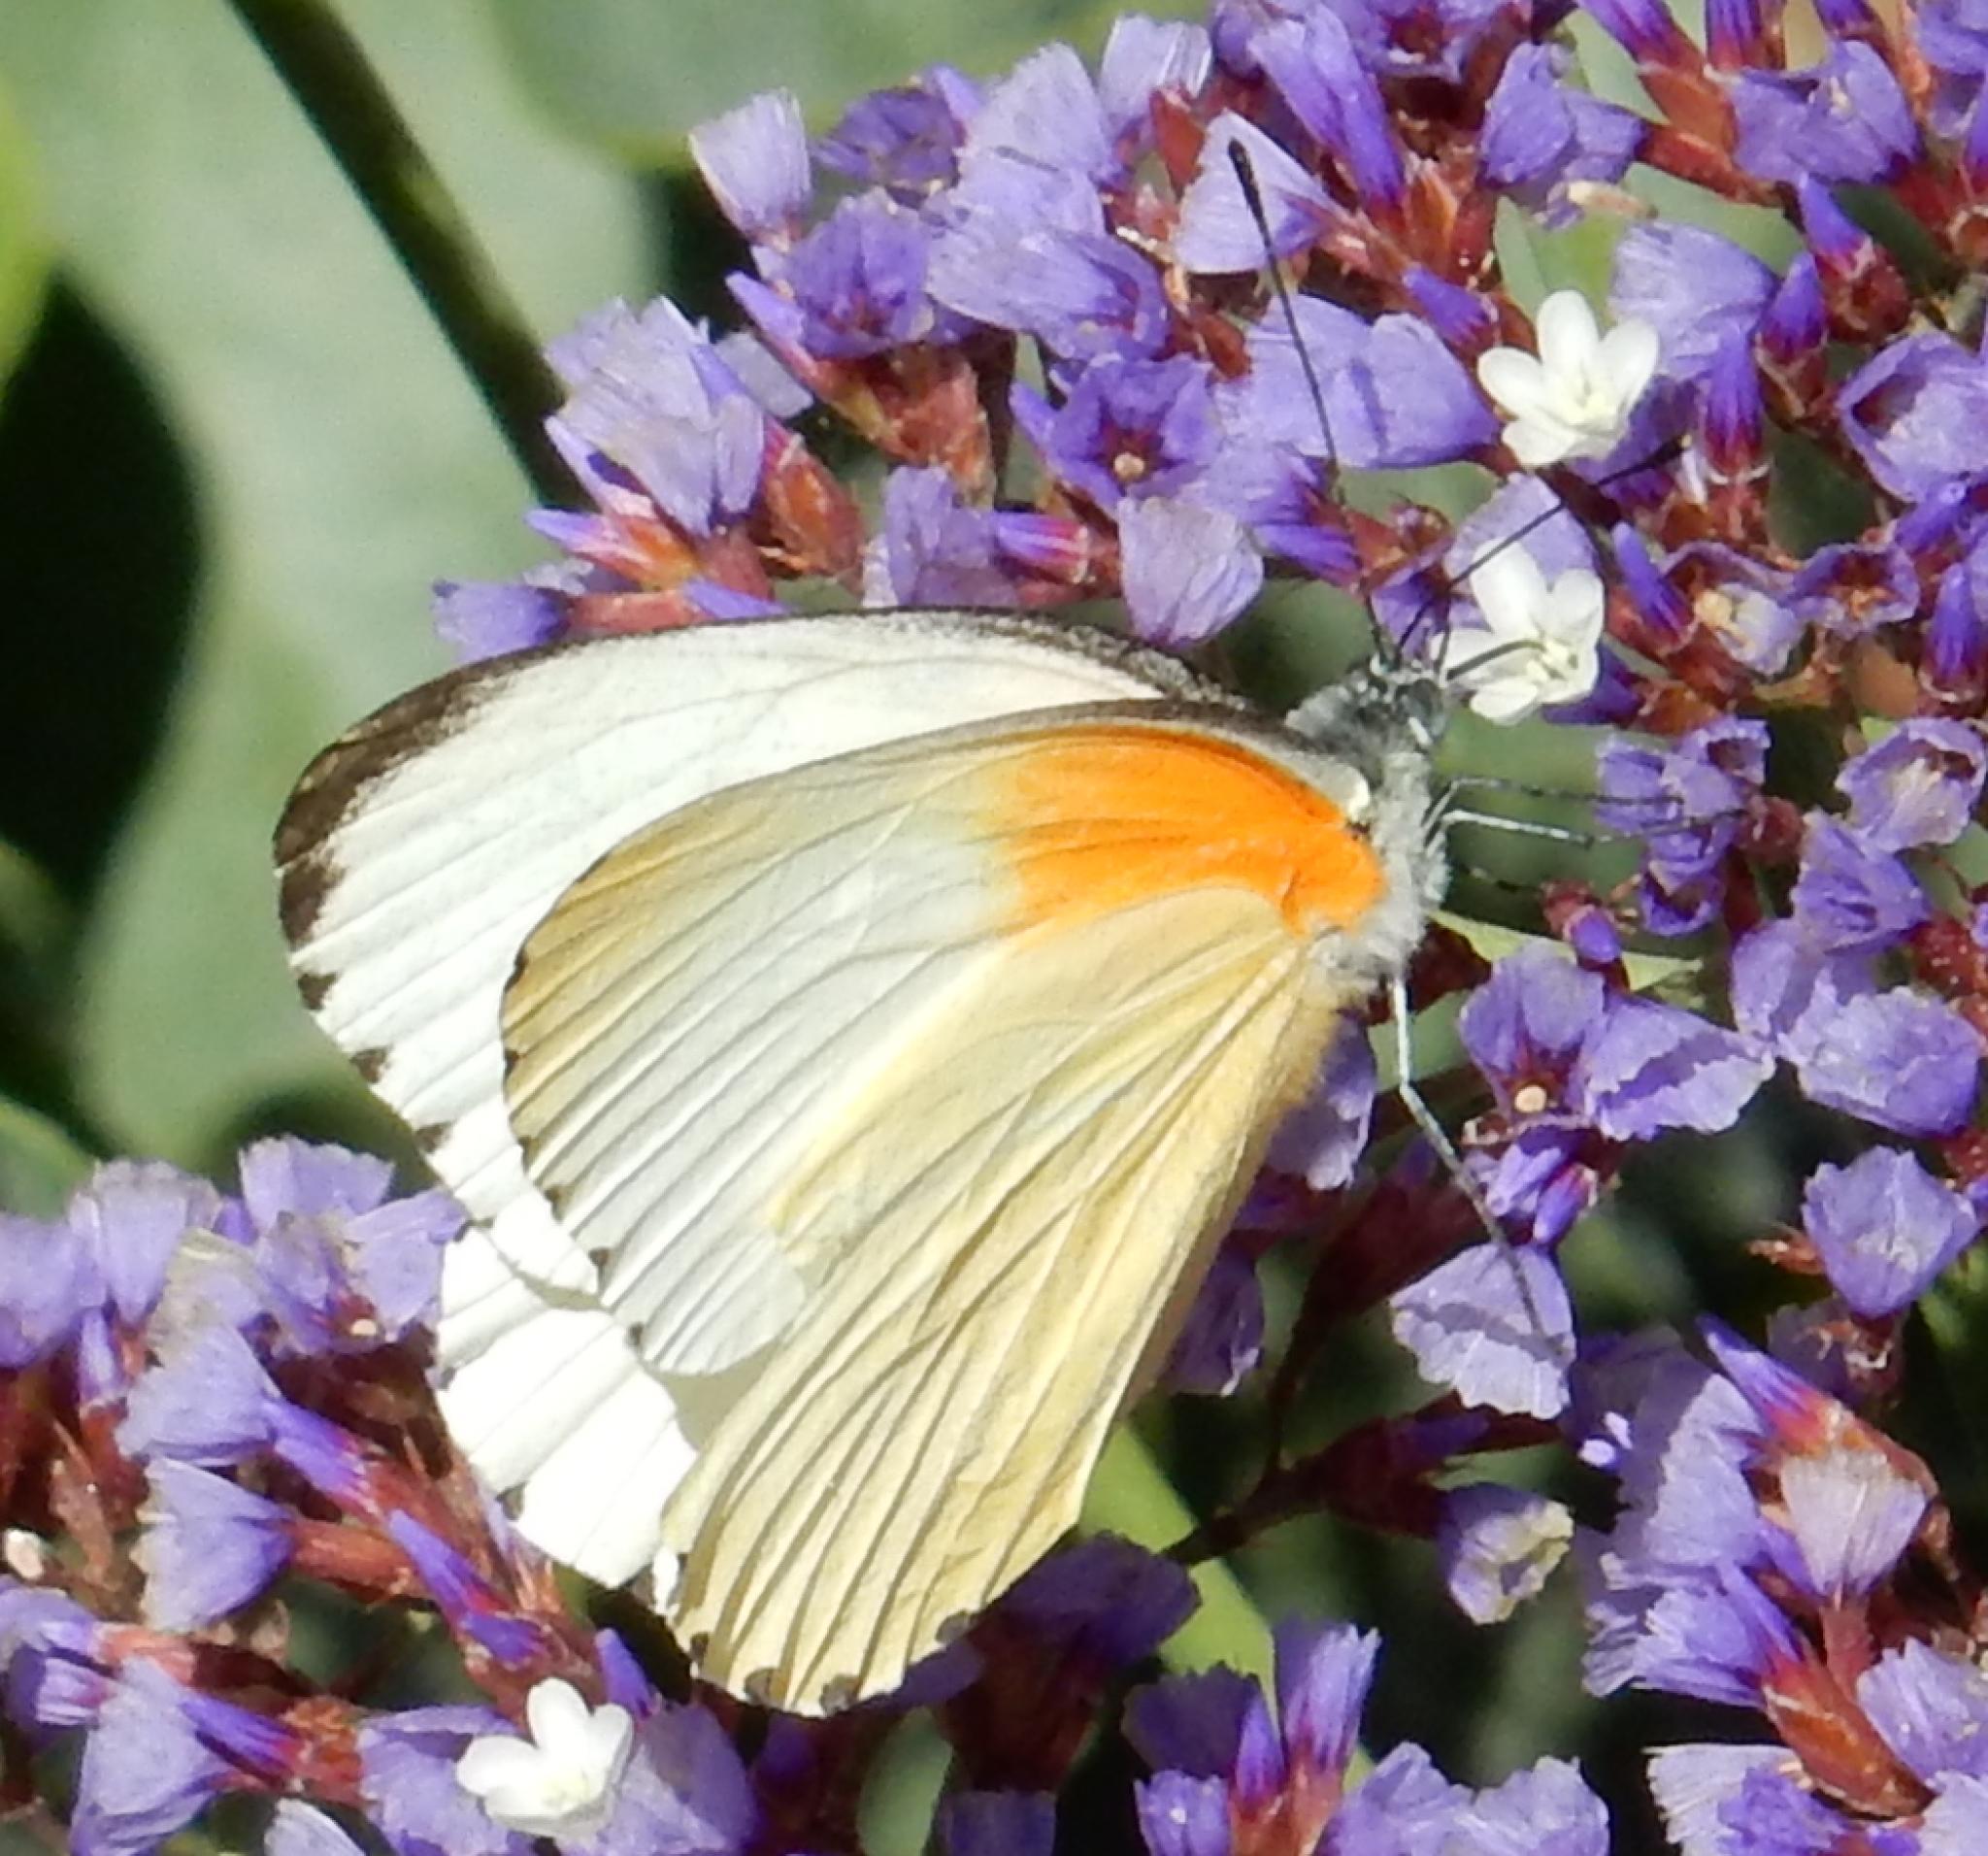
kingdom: Animalia
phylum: Arthropoda
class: Insecta
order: Lepidoptera
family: Pieridae
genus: Mylothris
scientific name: Mylothris agathina
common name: Eastern dotted border
